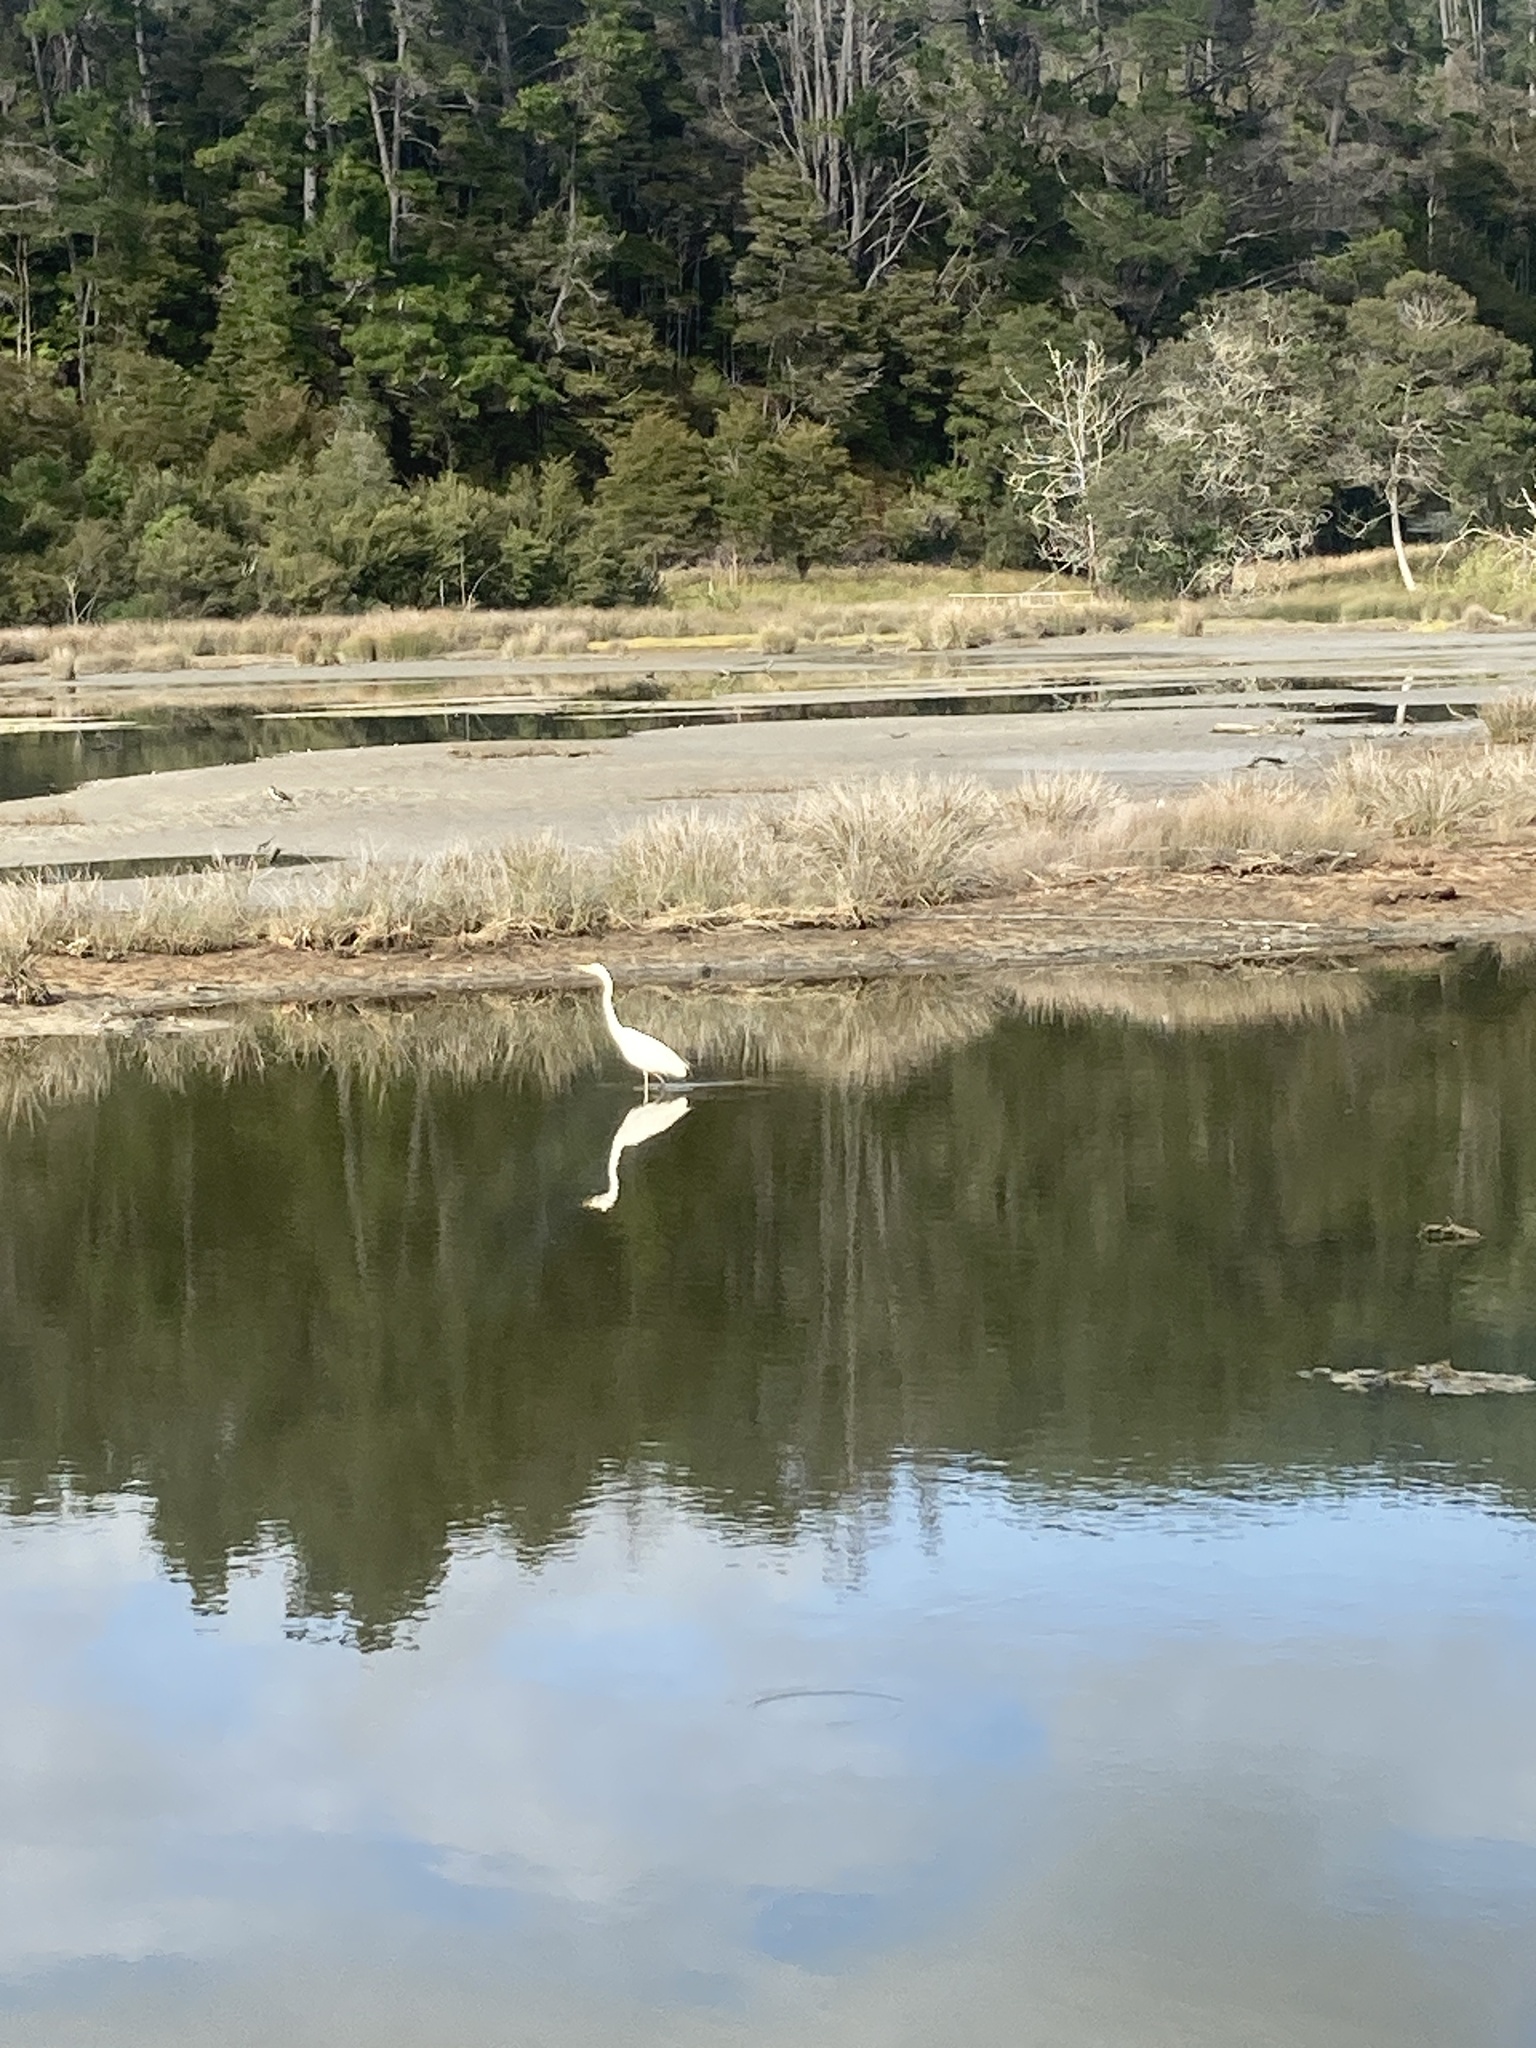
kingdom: Animalia
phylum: Chordata
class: Aves
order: Pelecaniformes
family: Ardeidae
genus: Ardea
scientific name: Ardea modesta
